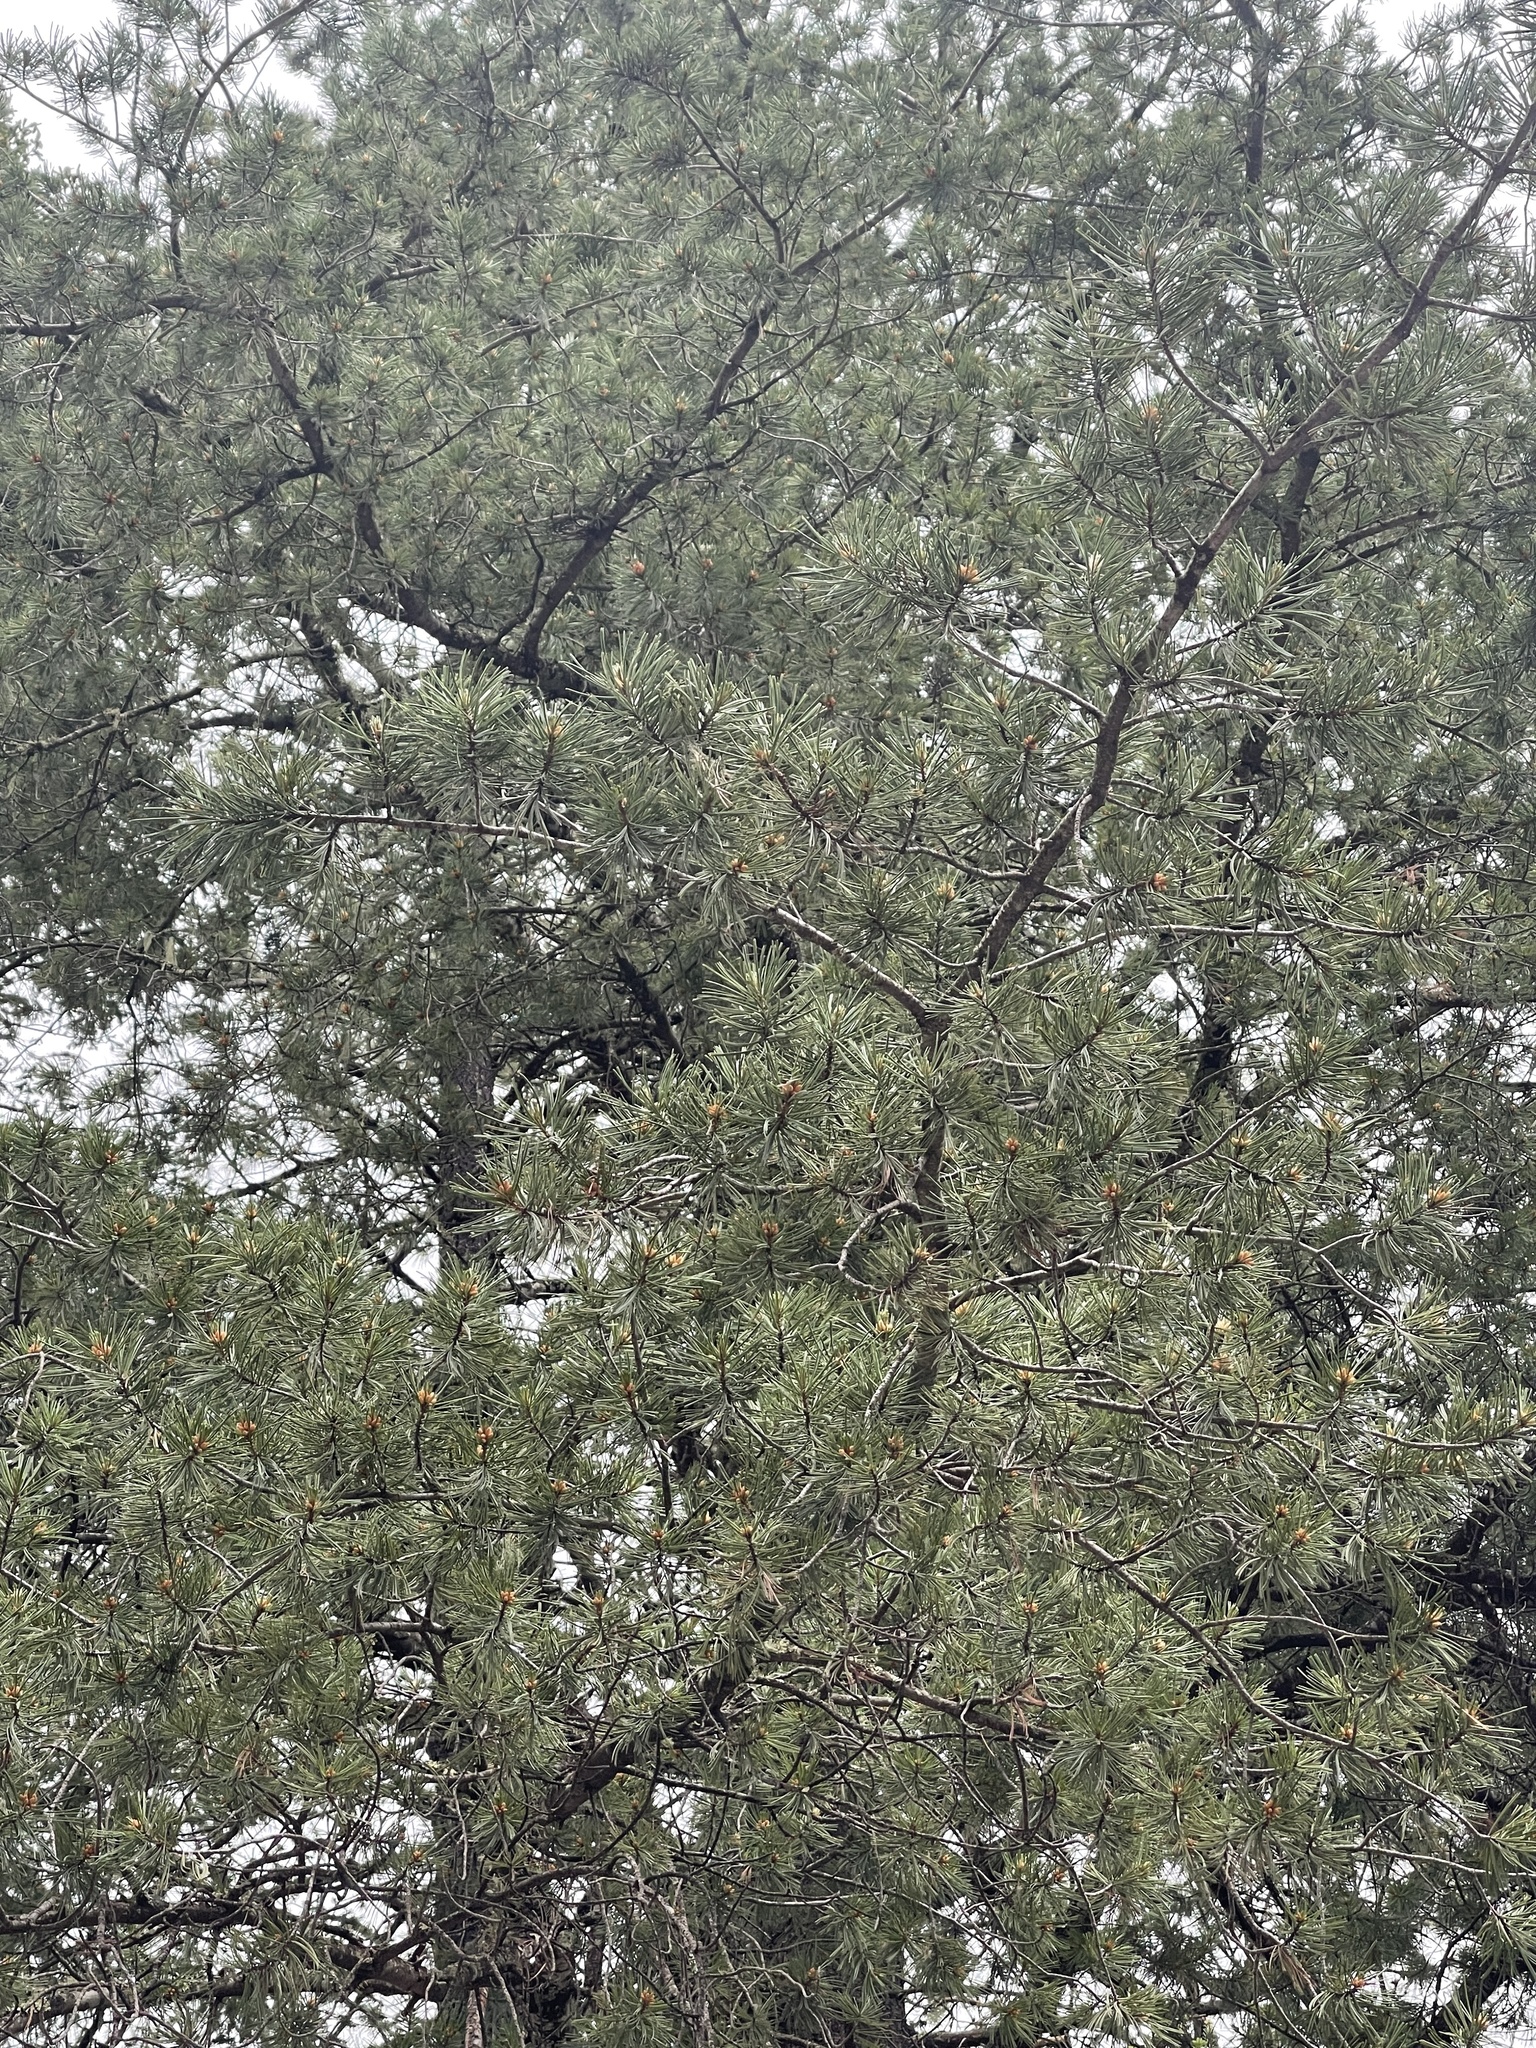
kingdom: Plantae
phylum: Tracheophyta
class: Pinopsida
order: Pinales
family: Pinaceae
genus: Pinus
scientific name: Pinus strobiformis
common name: Southwestern white pine
